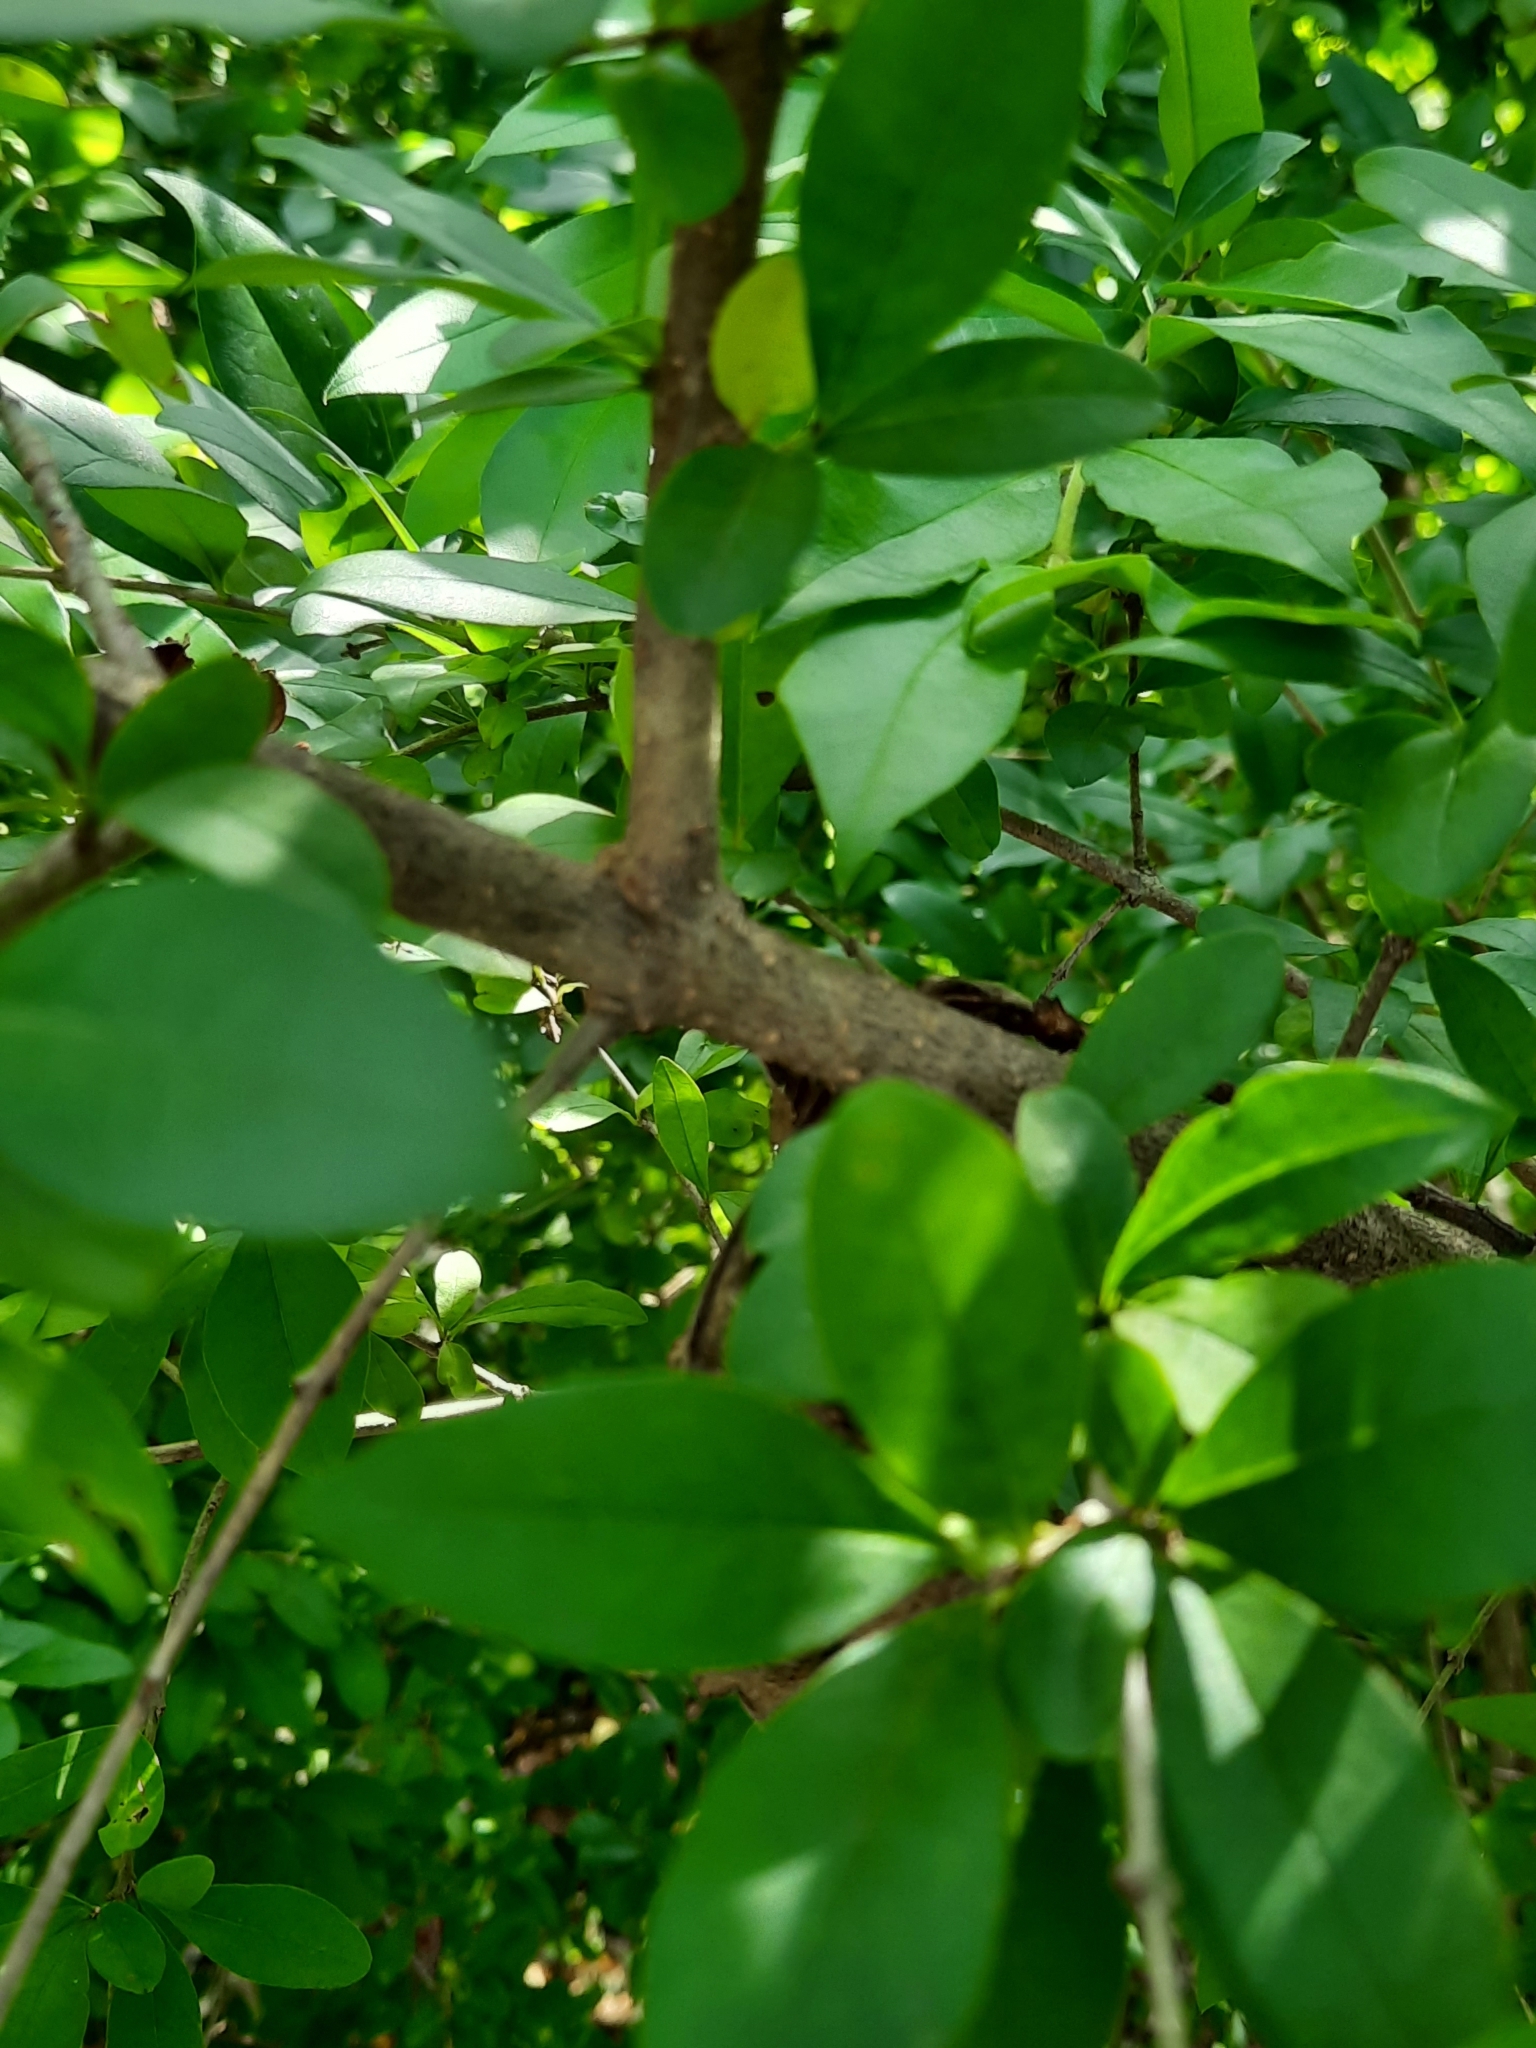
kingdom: Plantae
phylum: Tracheophyta
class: Magnoliopsida
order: Lamiales
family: Oleaceae
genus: Ligustrum
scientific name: Ligustrum obtusifolium
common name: Border privet
